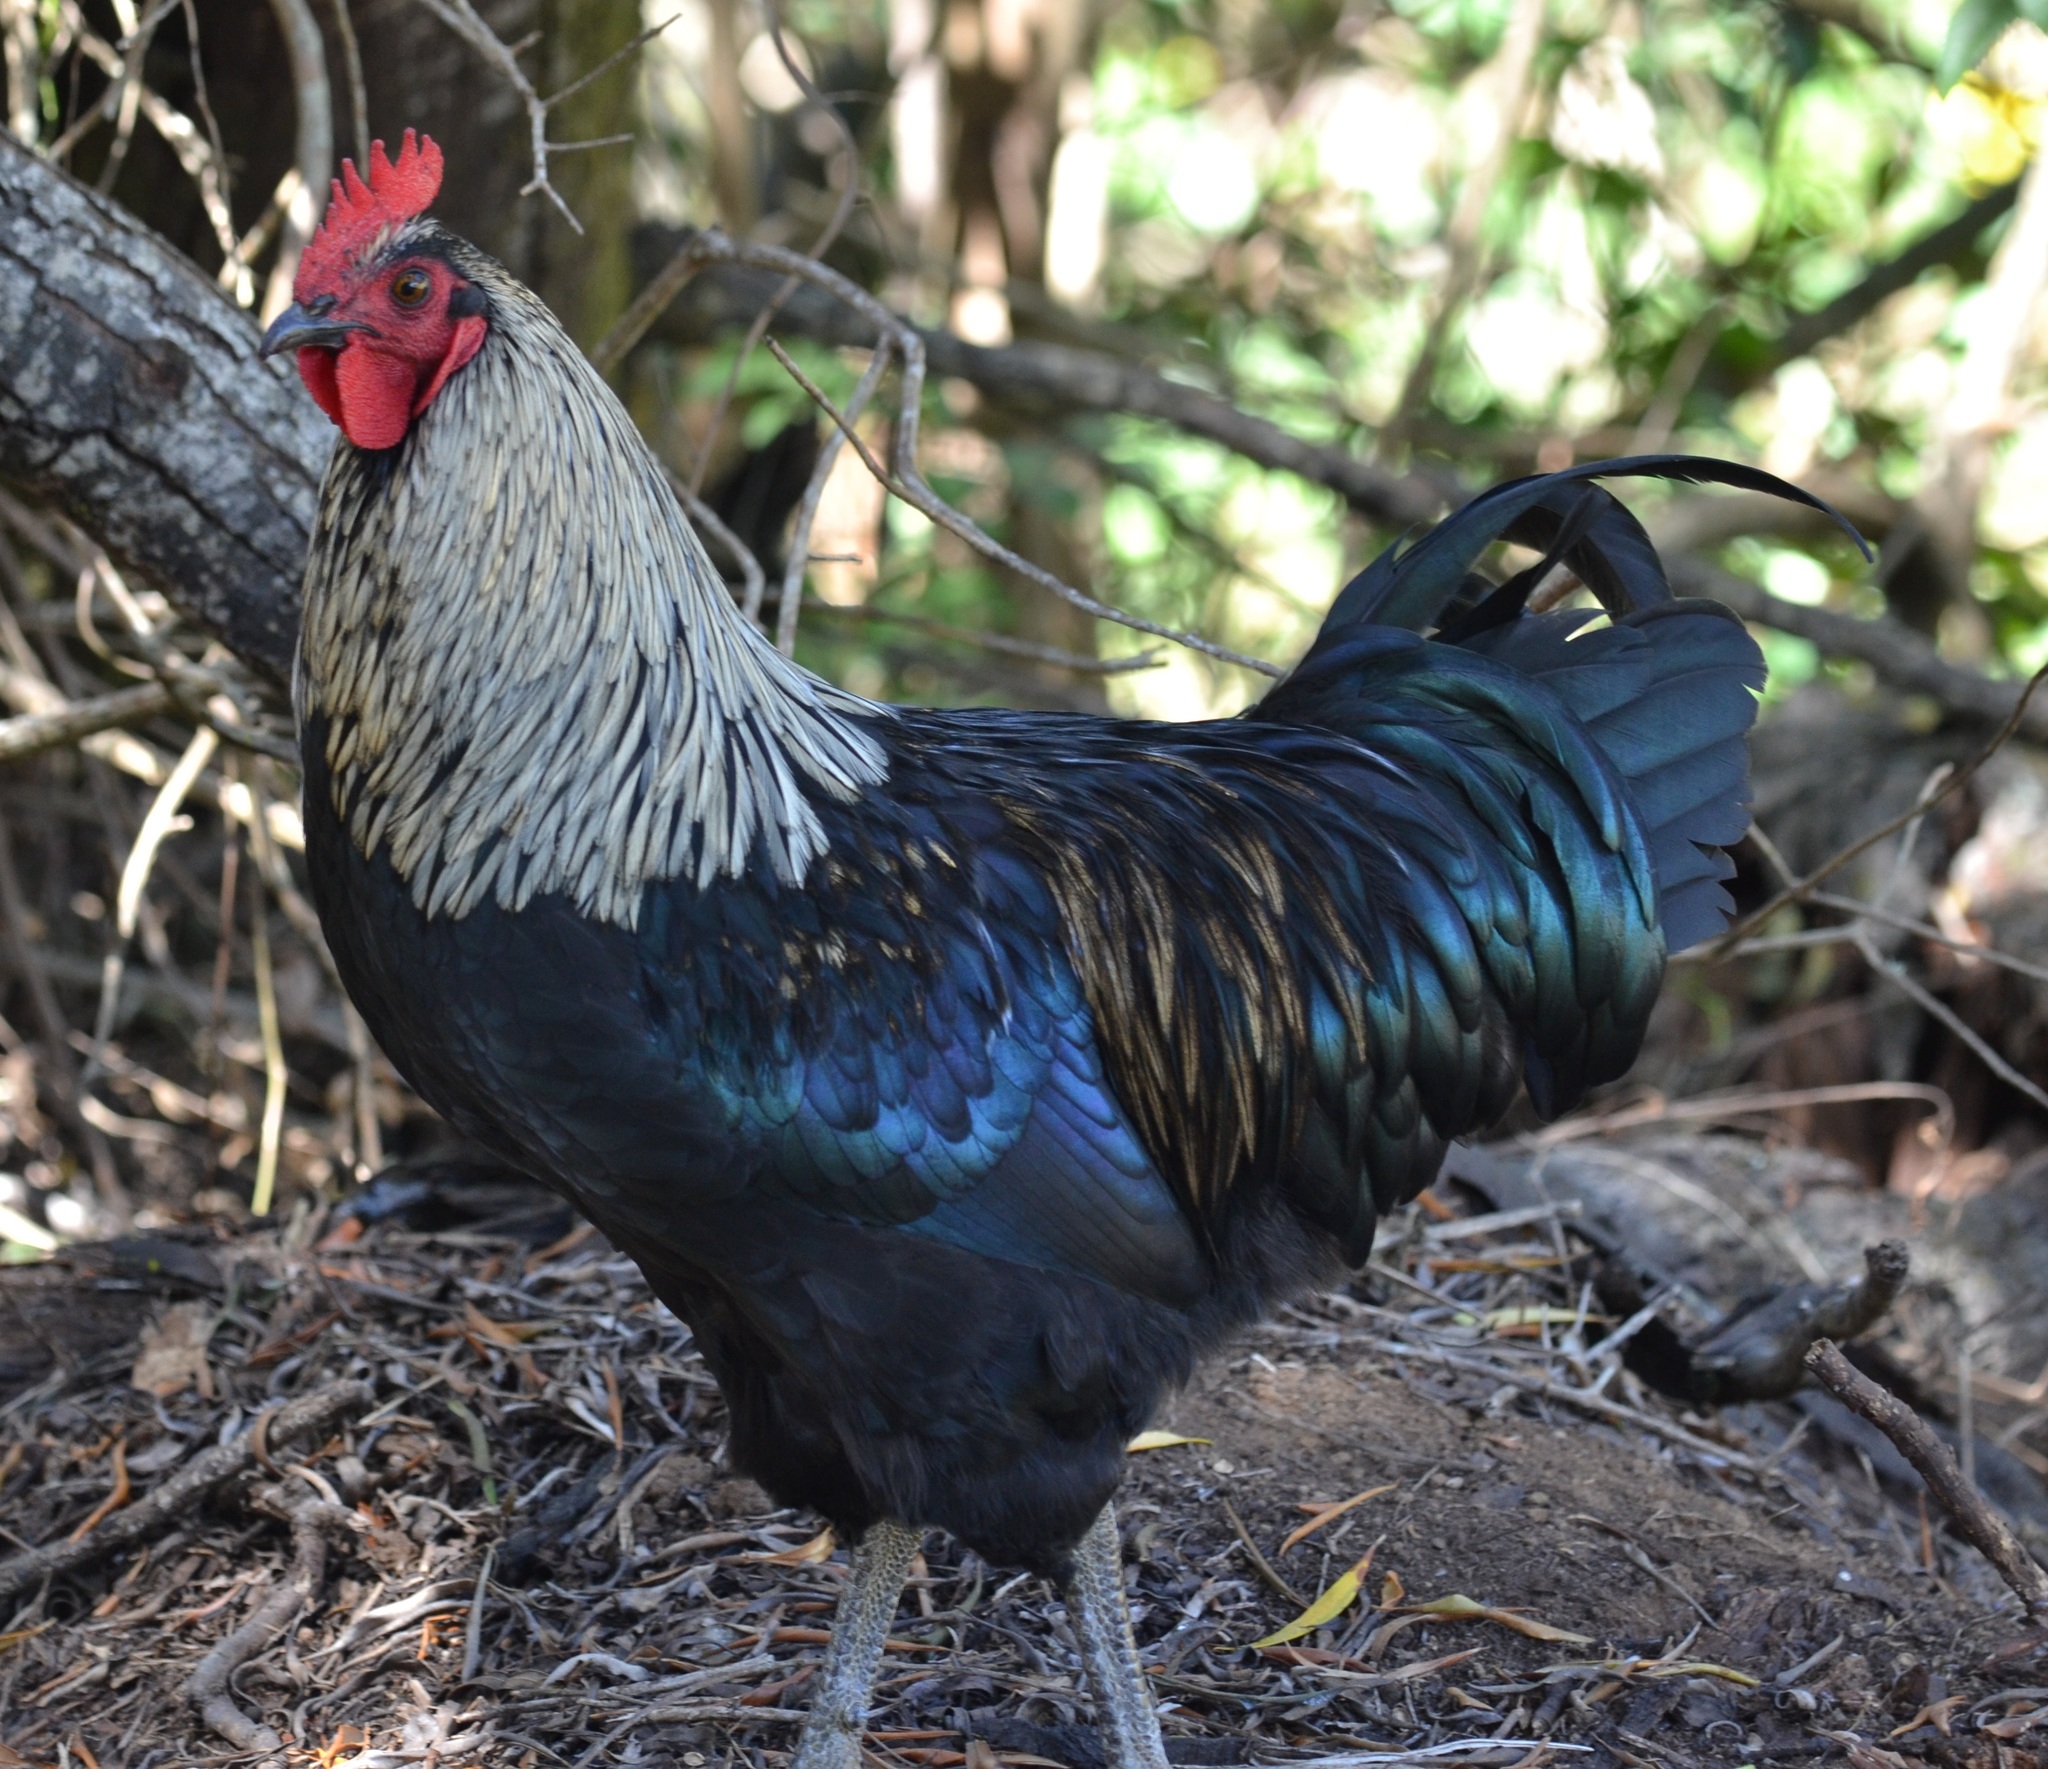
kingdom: Animalia
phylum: Chordata
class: Aves
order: Galliformes
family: Phasianidae
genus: Gallus
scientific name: Gallus gallus
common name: Red junglefowl
